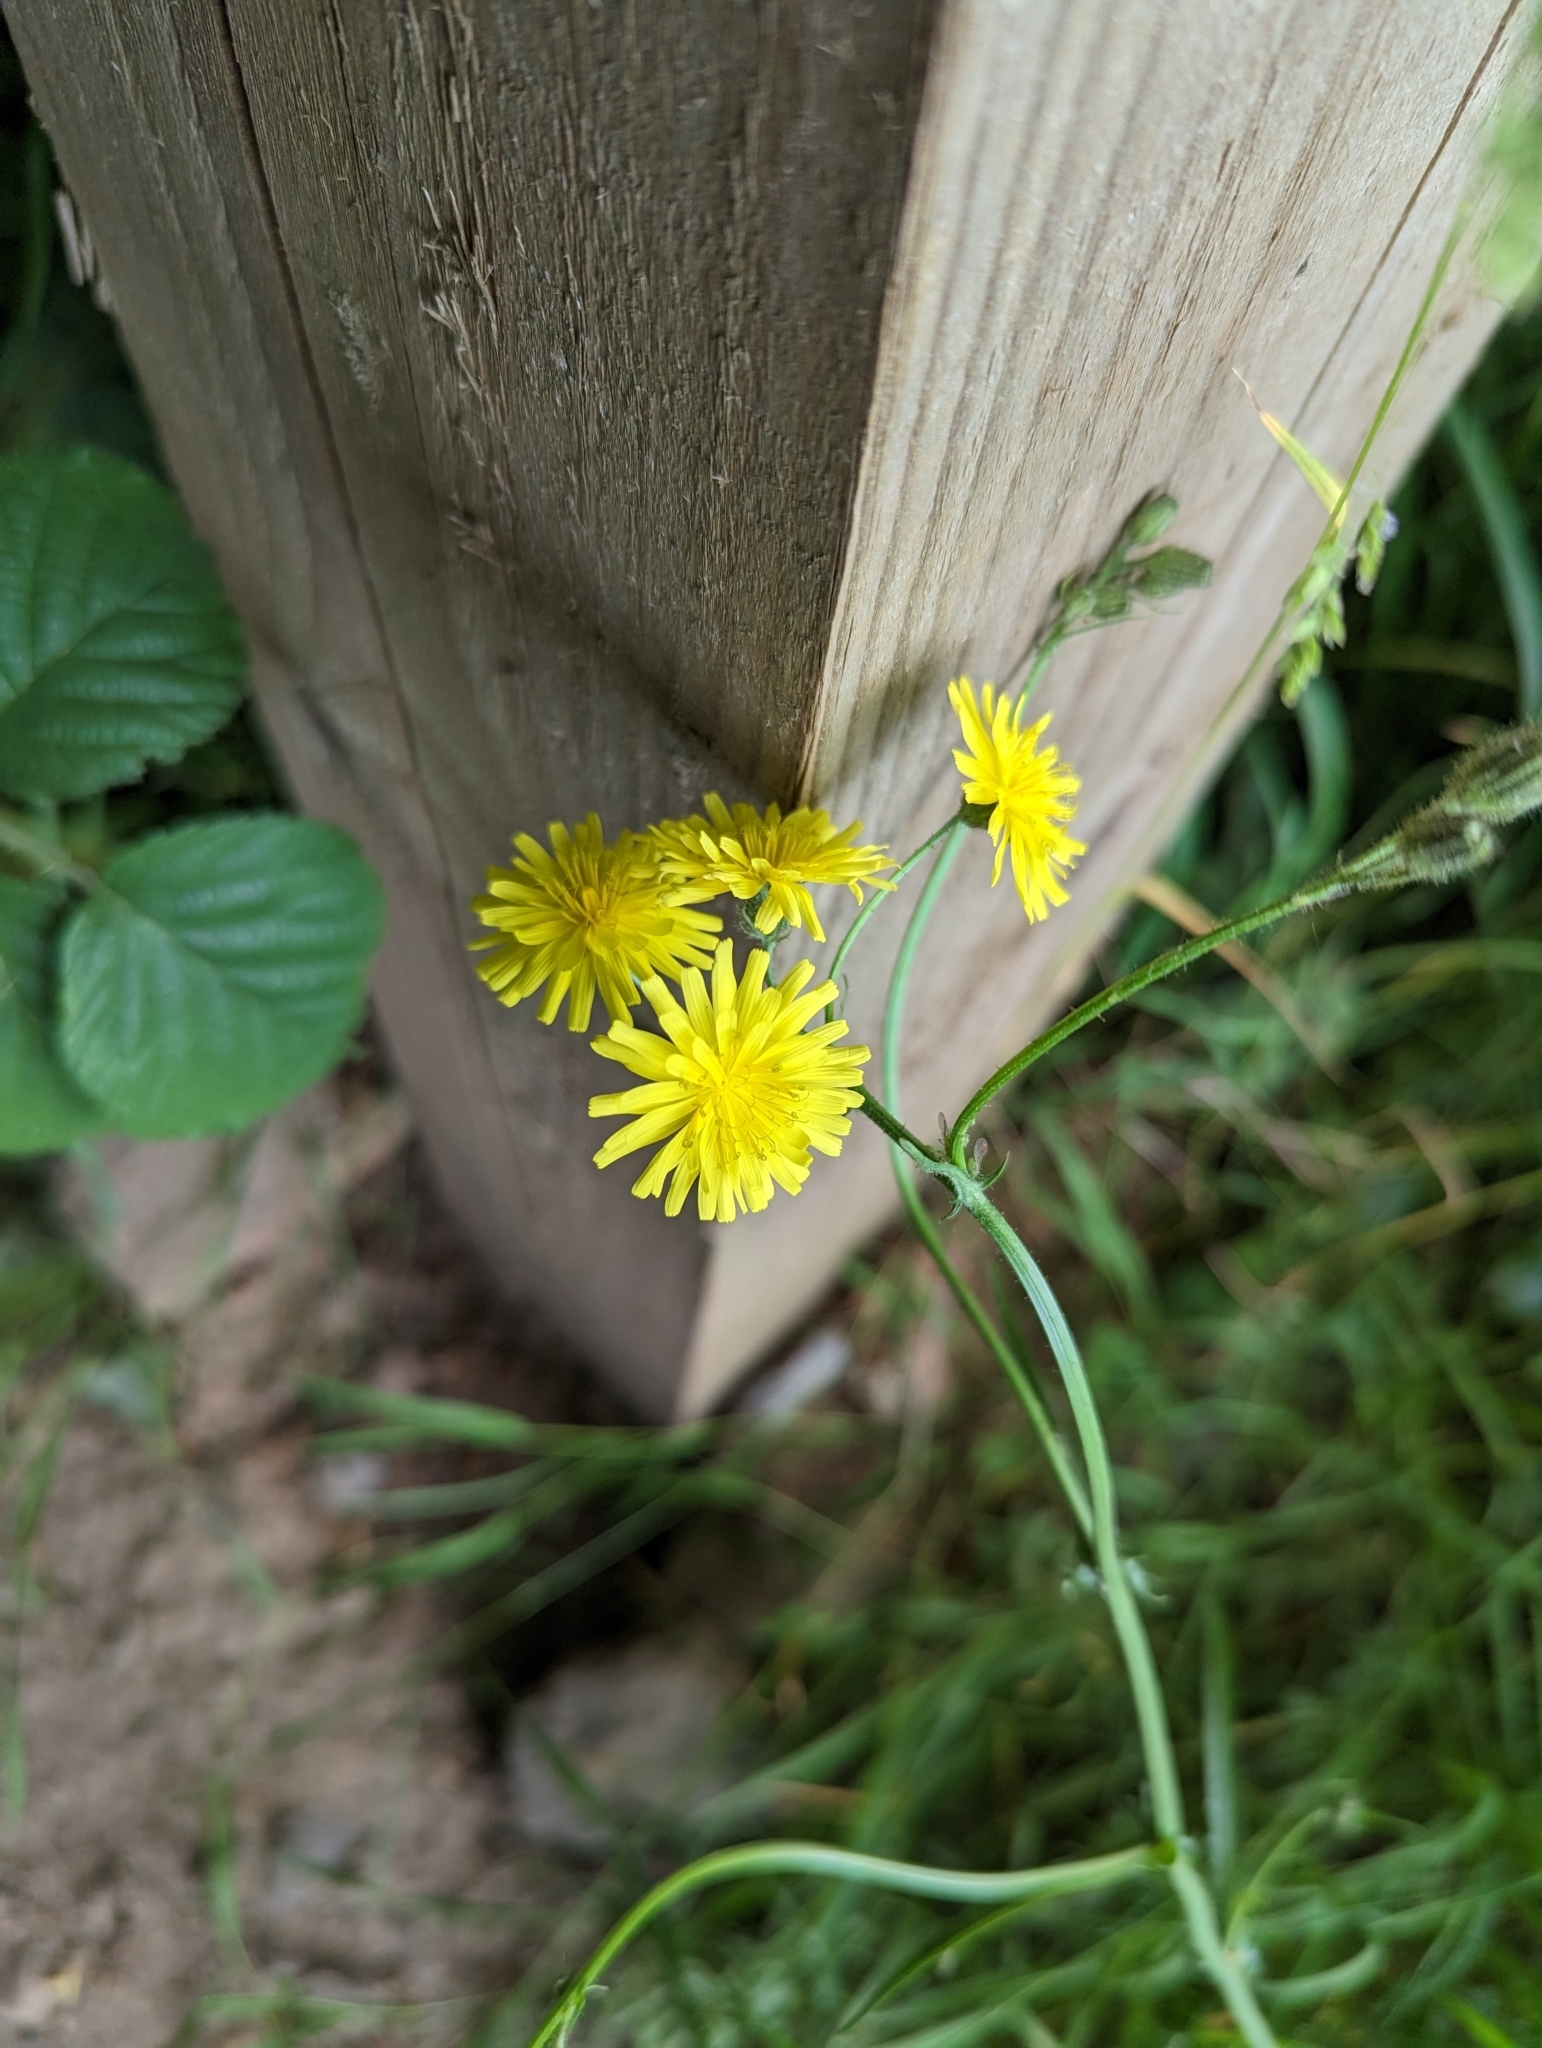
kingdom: Plantae
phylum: Tracheophyta
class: Magnoliopsida
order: Asterales
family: Asteraceae
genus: Crepis
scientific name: Crepis capillaris
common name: Smooth hawksbeard
